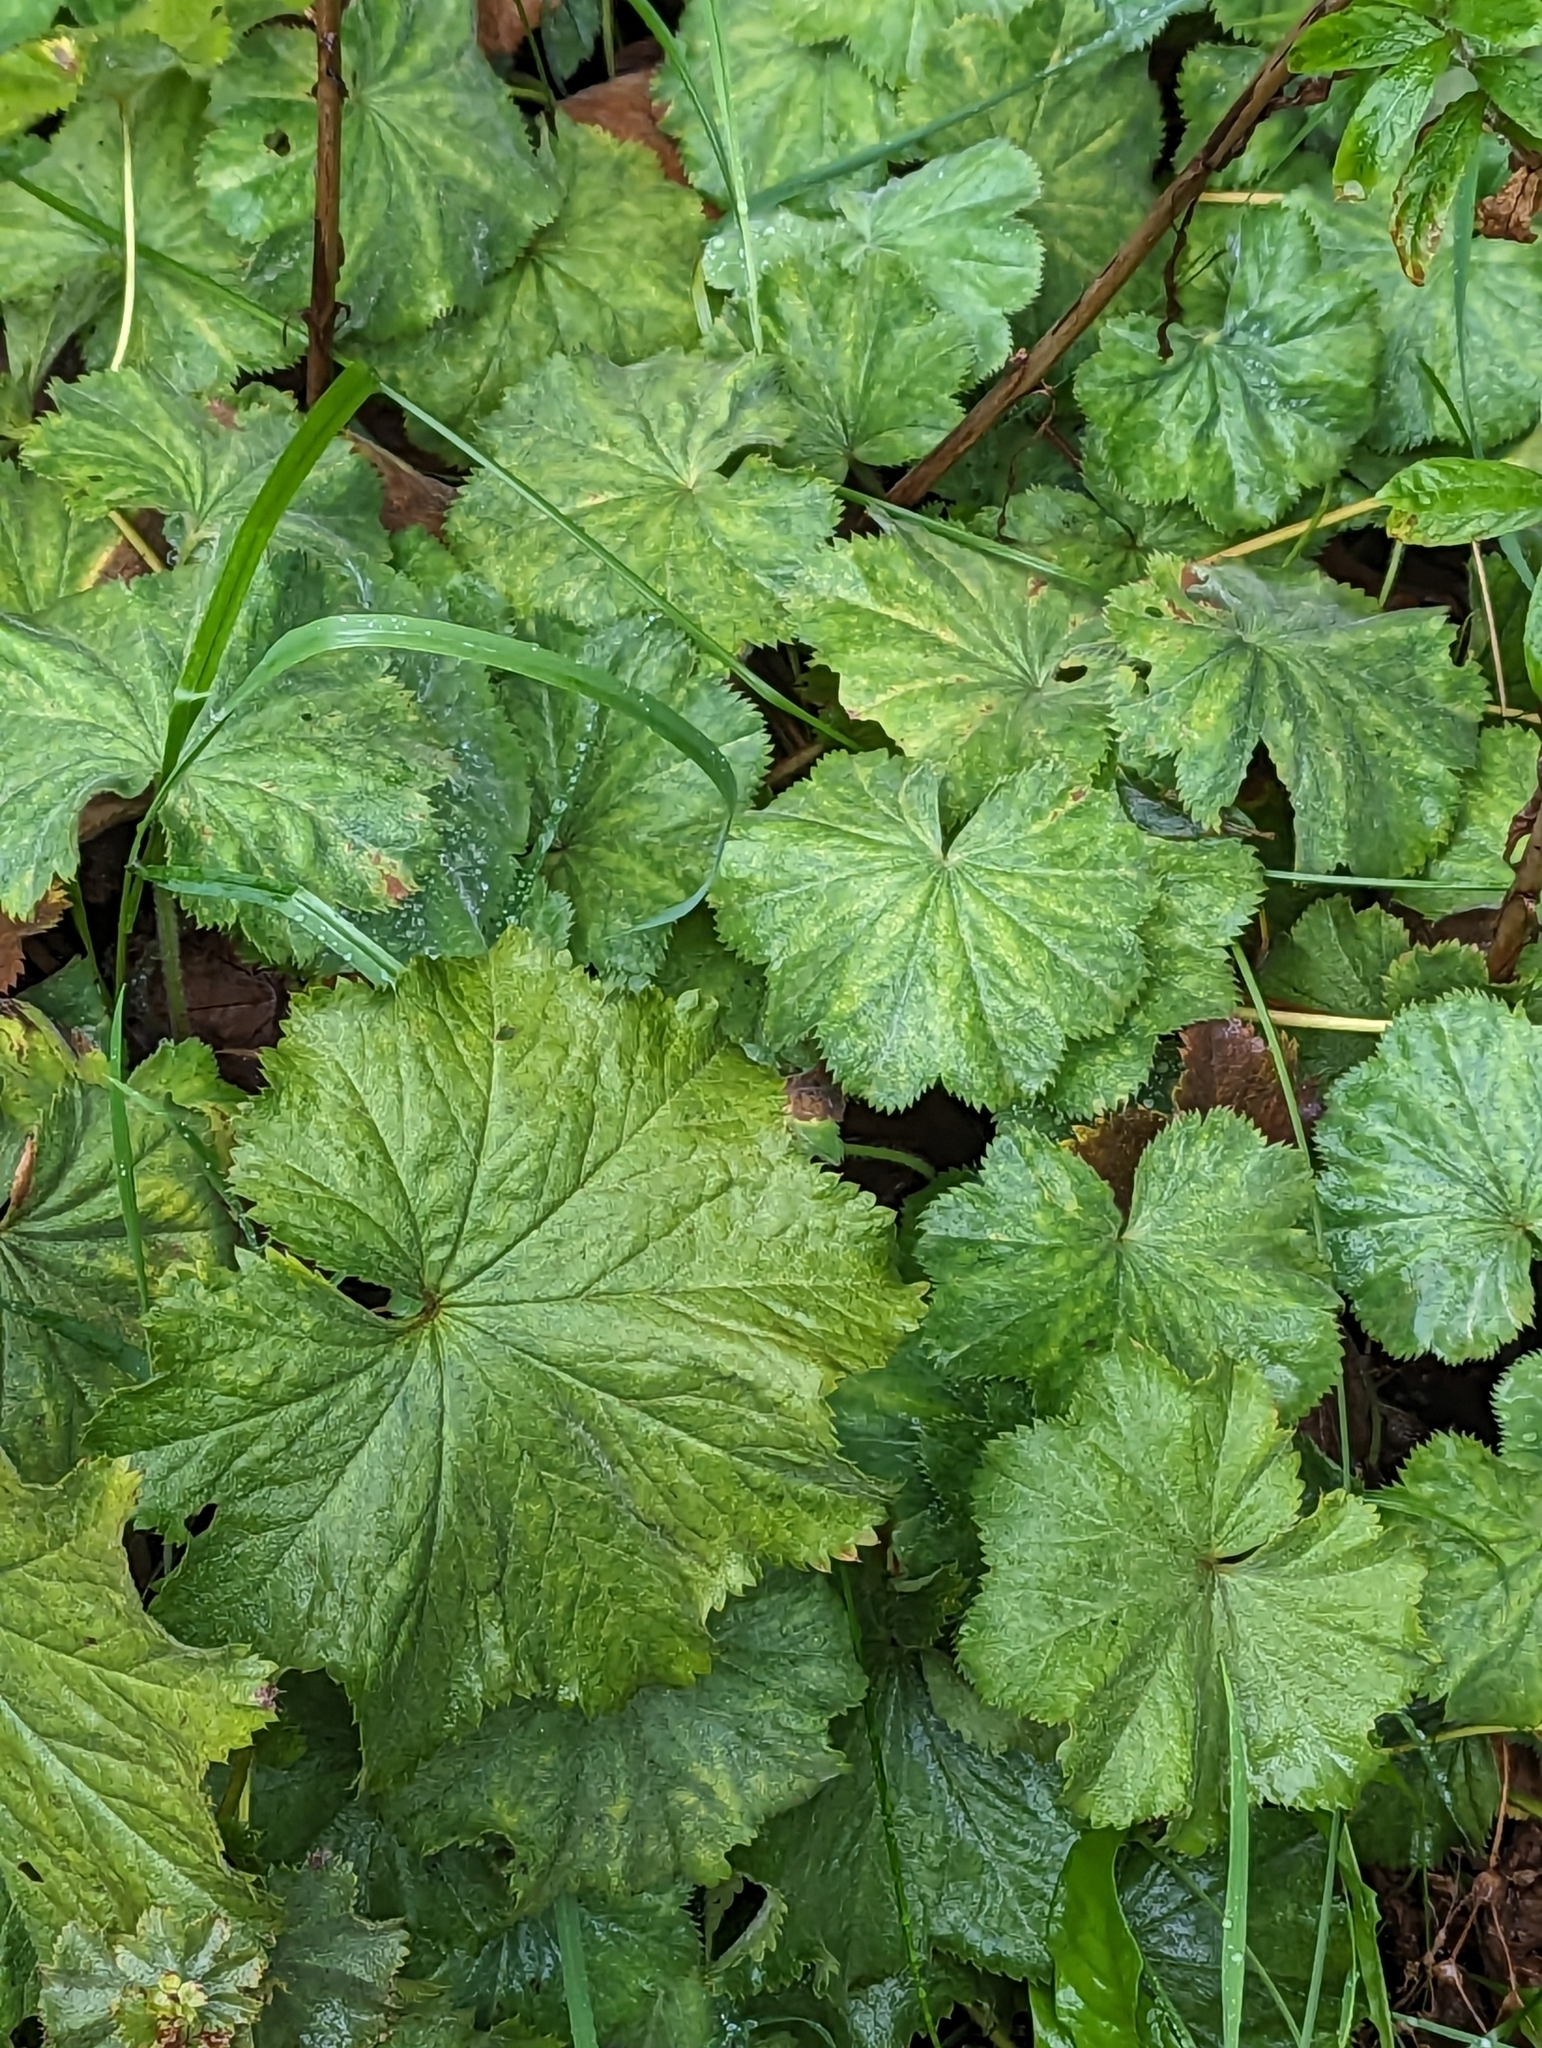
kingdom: Plantae
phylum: Tracheophyta
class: Magnoliopsida
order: Rosales
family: Rosaceae
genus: Alchemilla
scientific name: Alchemilla mollis
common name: Lady's-mantle
